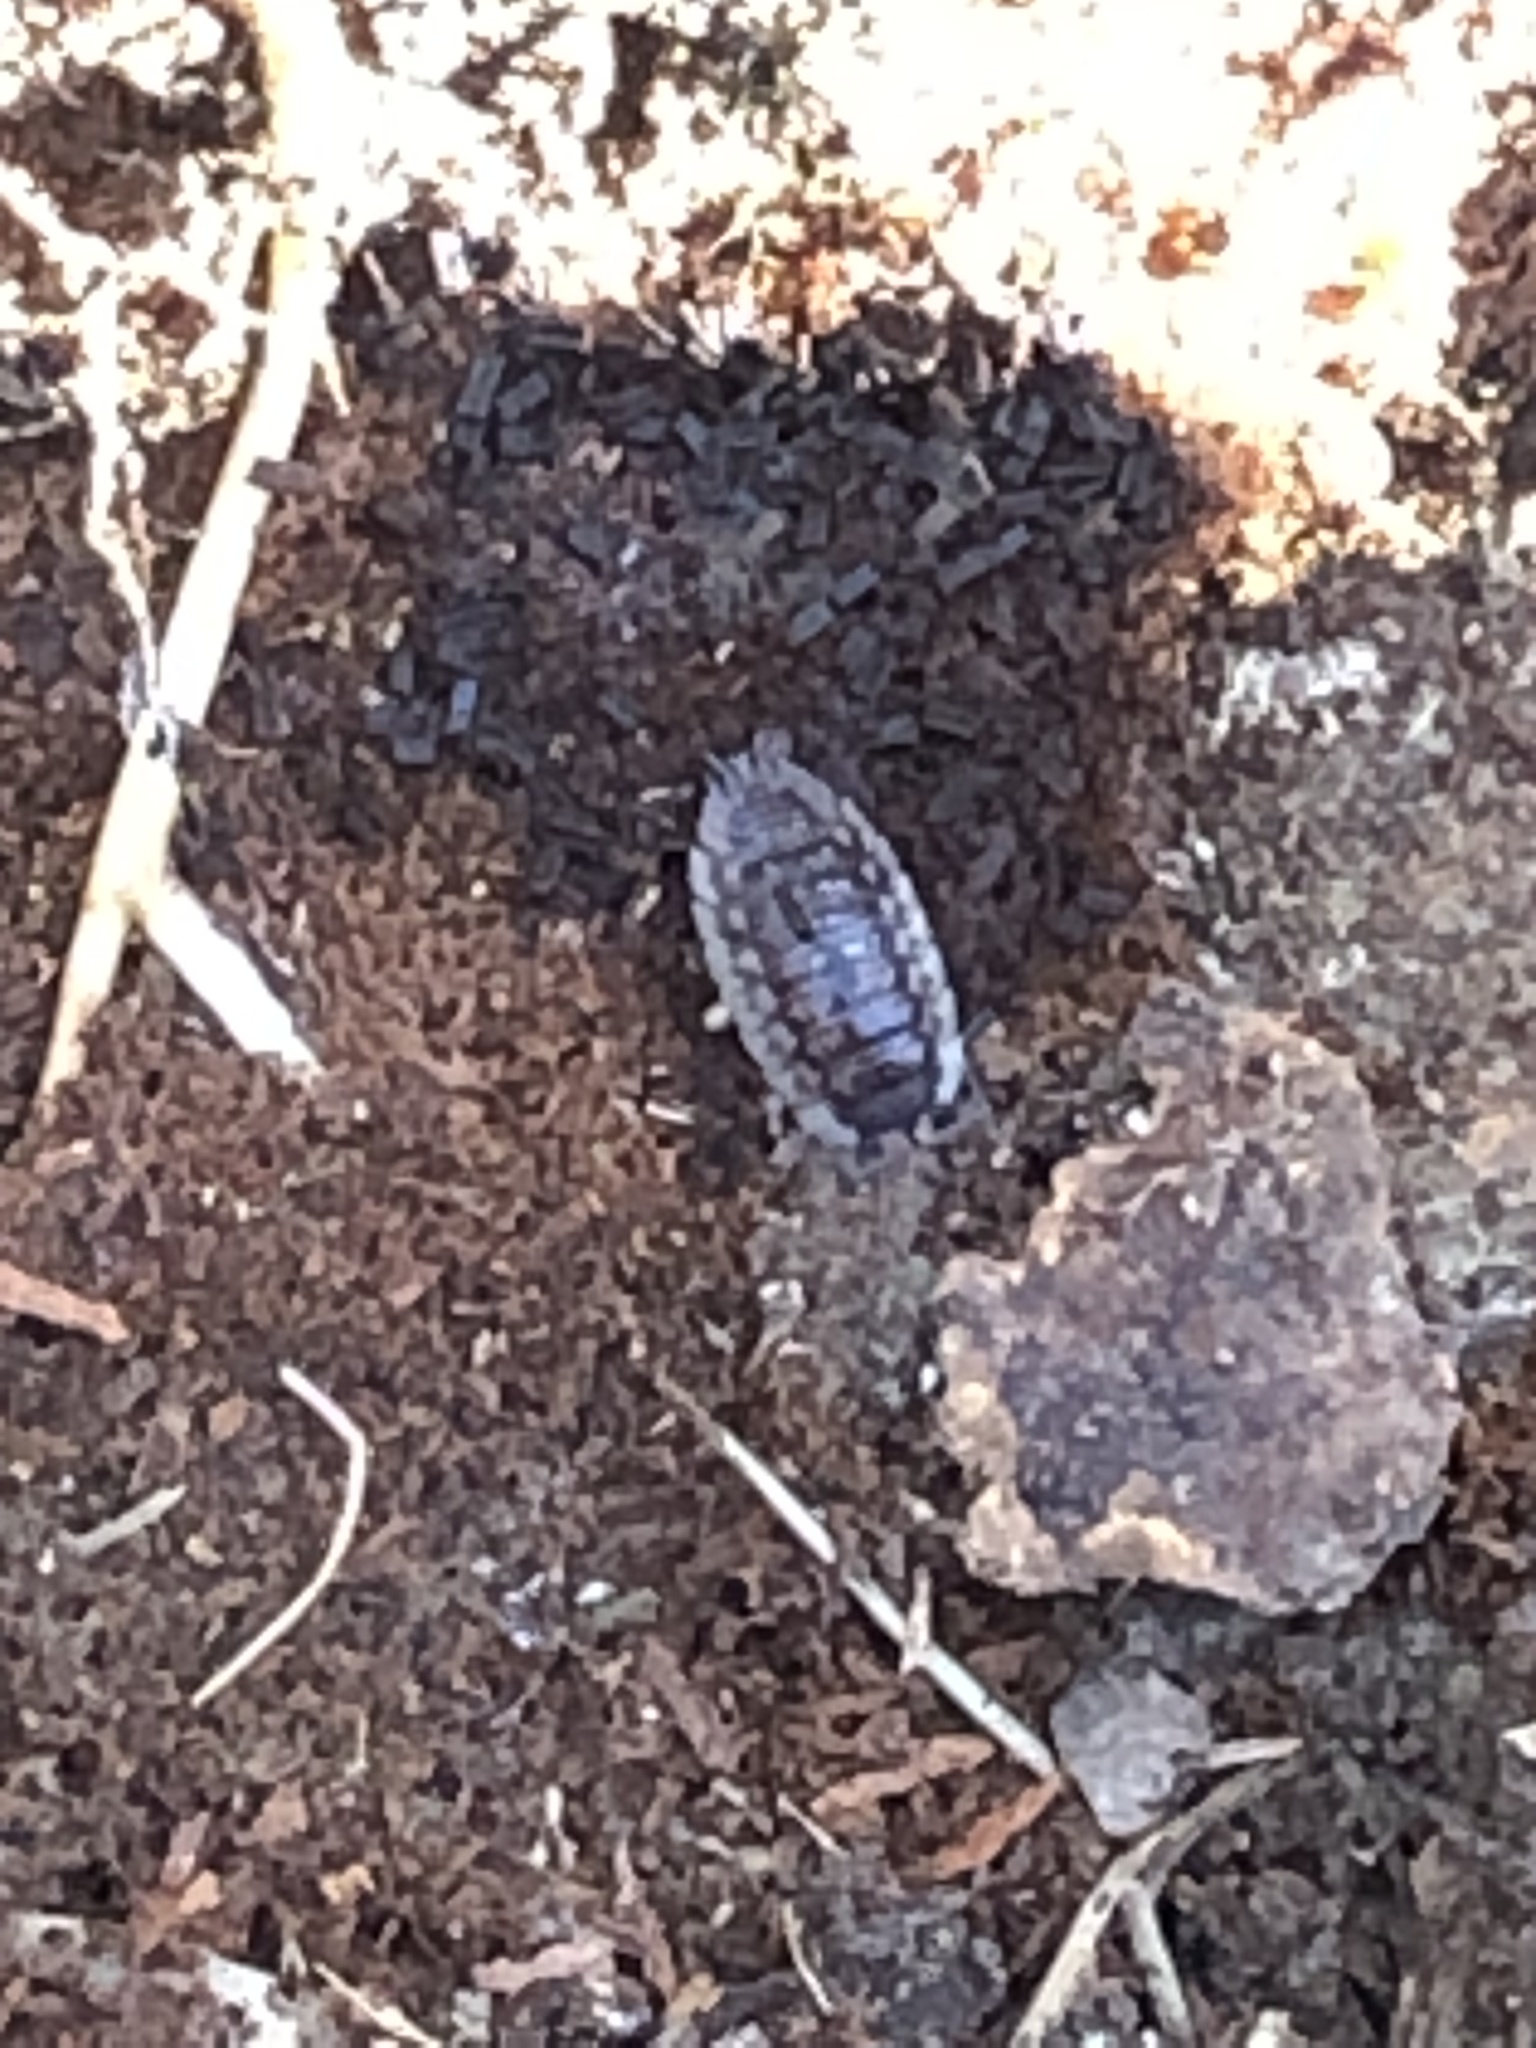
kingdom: Animalia
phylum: Arthropoda
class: Malacostraca
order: Isopoda
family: Oniscidae
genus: Oniscus
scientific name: Oniscus asellus
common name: Common shiny woodlouse
